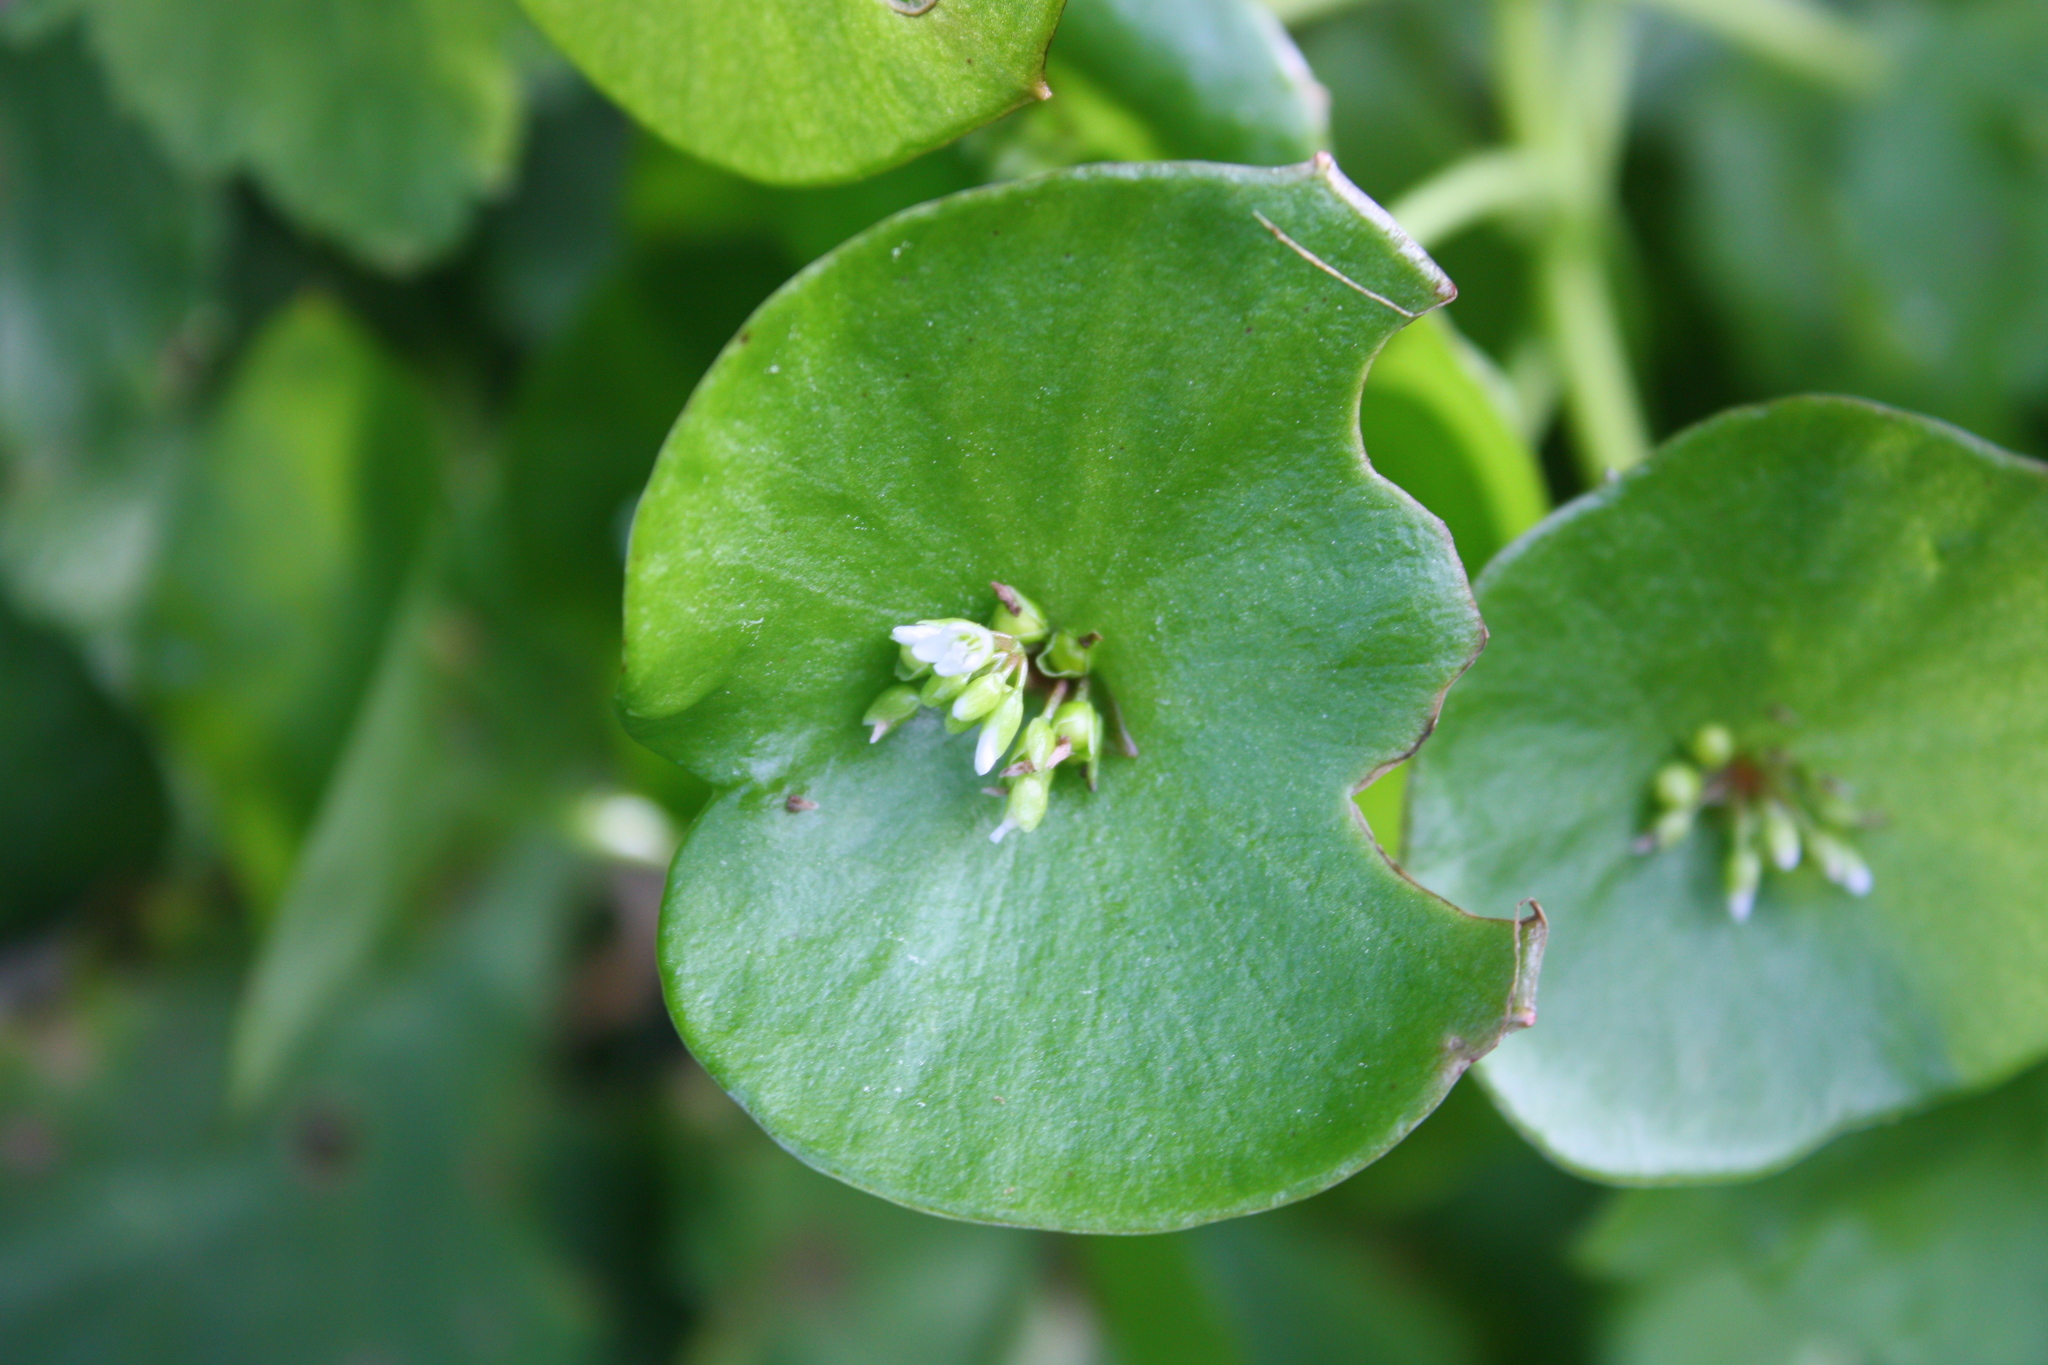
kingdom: Plantae
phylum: Tracheophyta
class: Magnoliopsida
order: Caryophyllales
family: Montiaceae
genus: Claytonia
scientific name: Claytonia perfoliata
